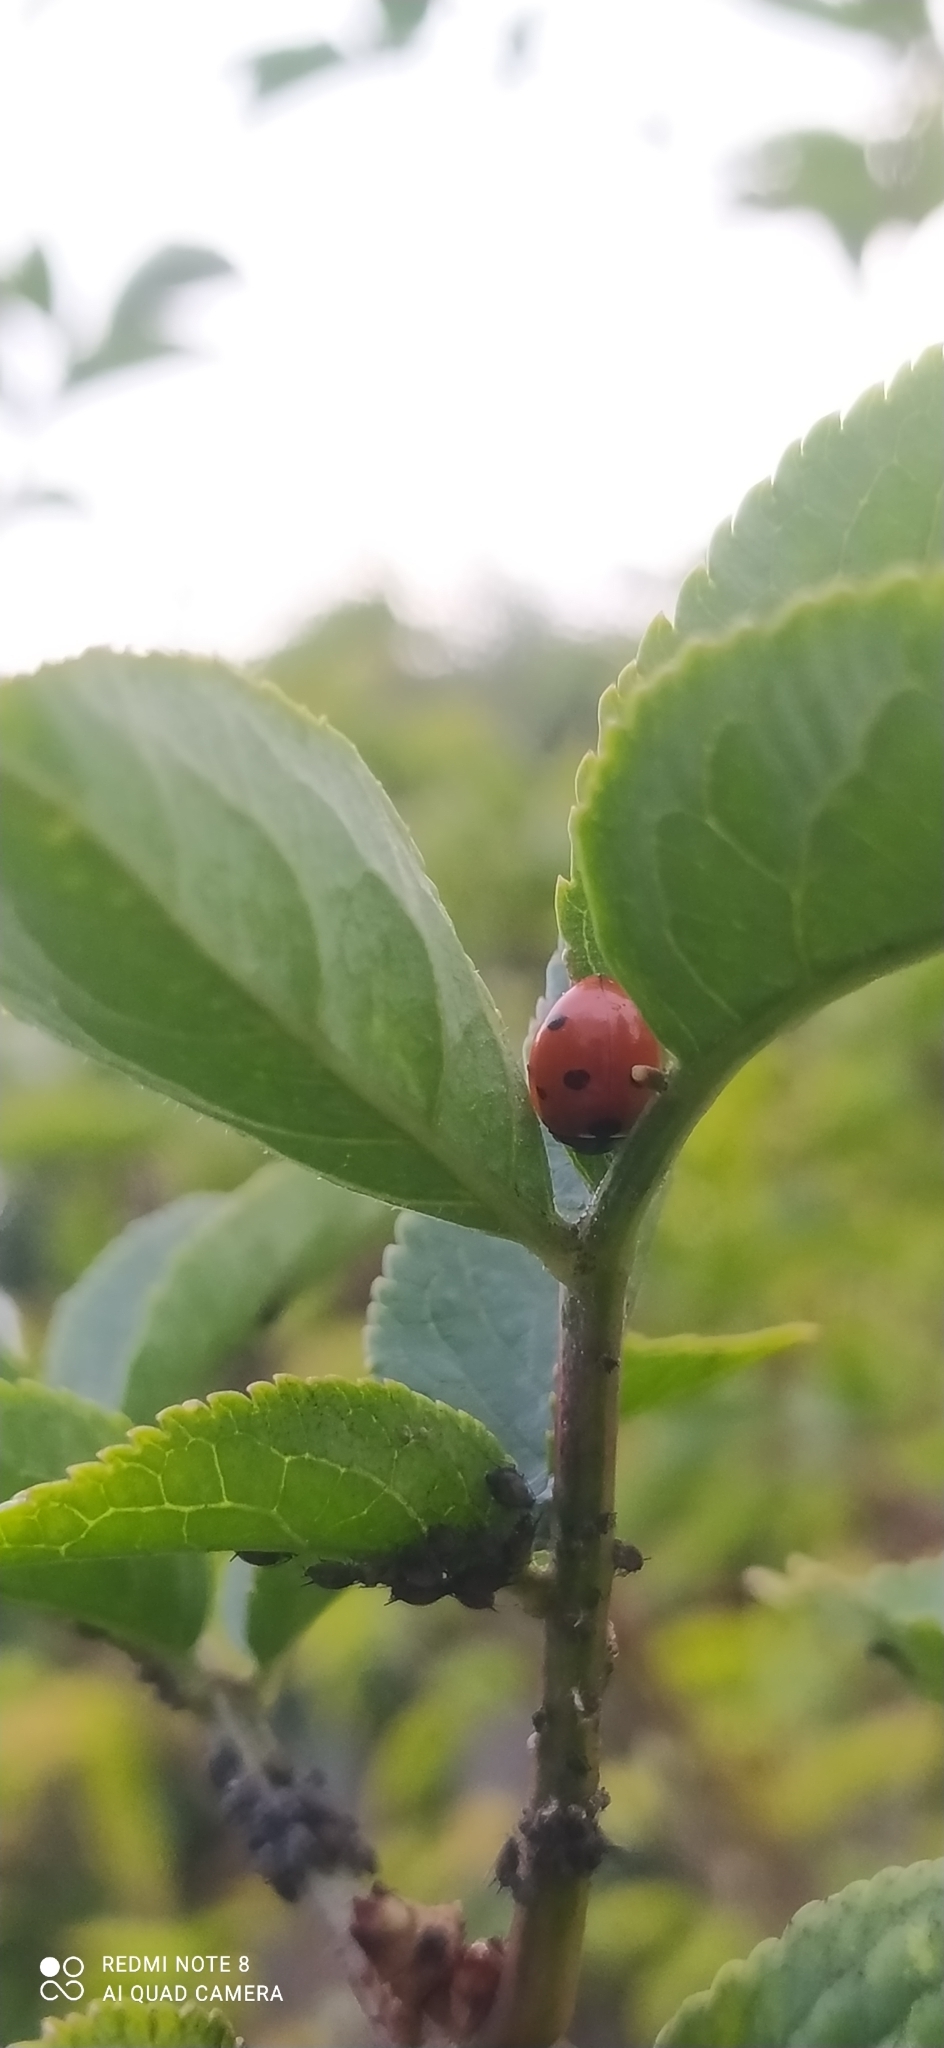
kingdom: Animalia
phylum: Arthropoda
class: Insecta
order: Coleoptera
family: Coccinellidae
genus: Coccinella
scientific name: Coccinella septempunctata
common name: Sevenspotted lady beetle
